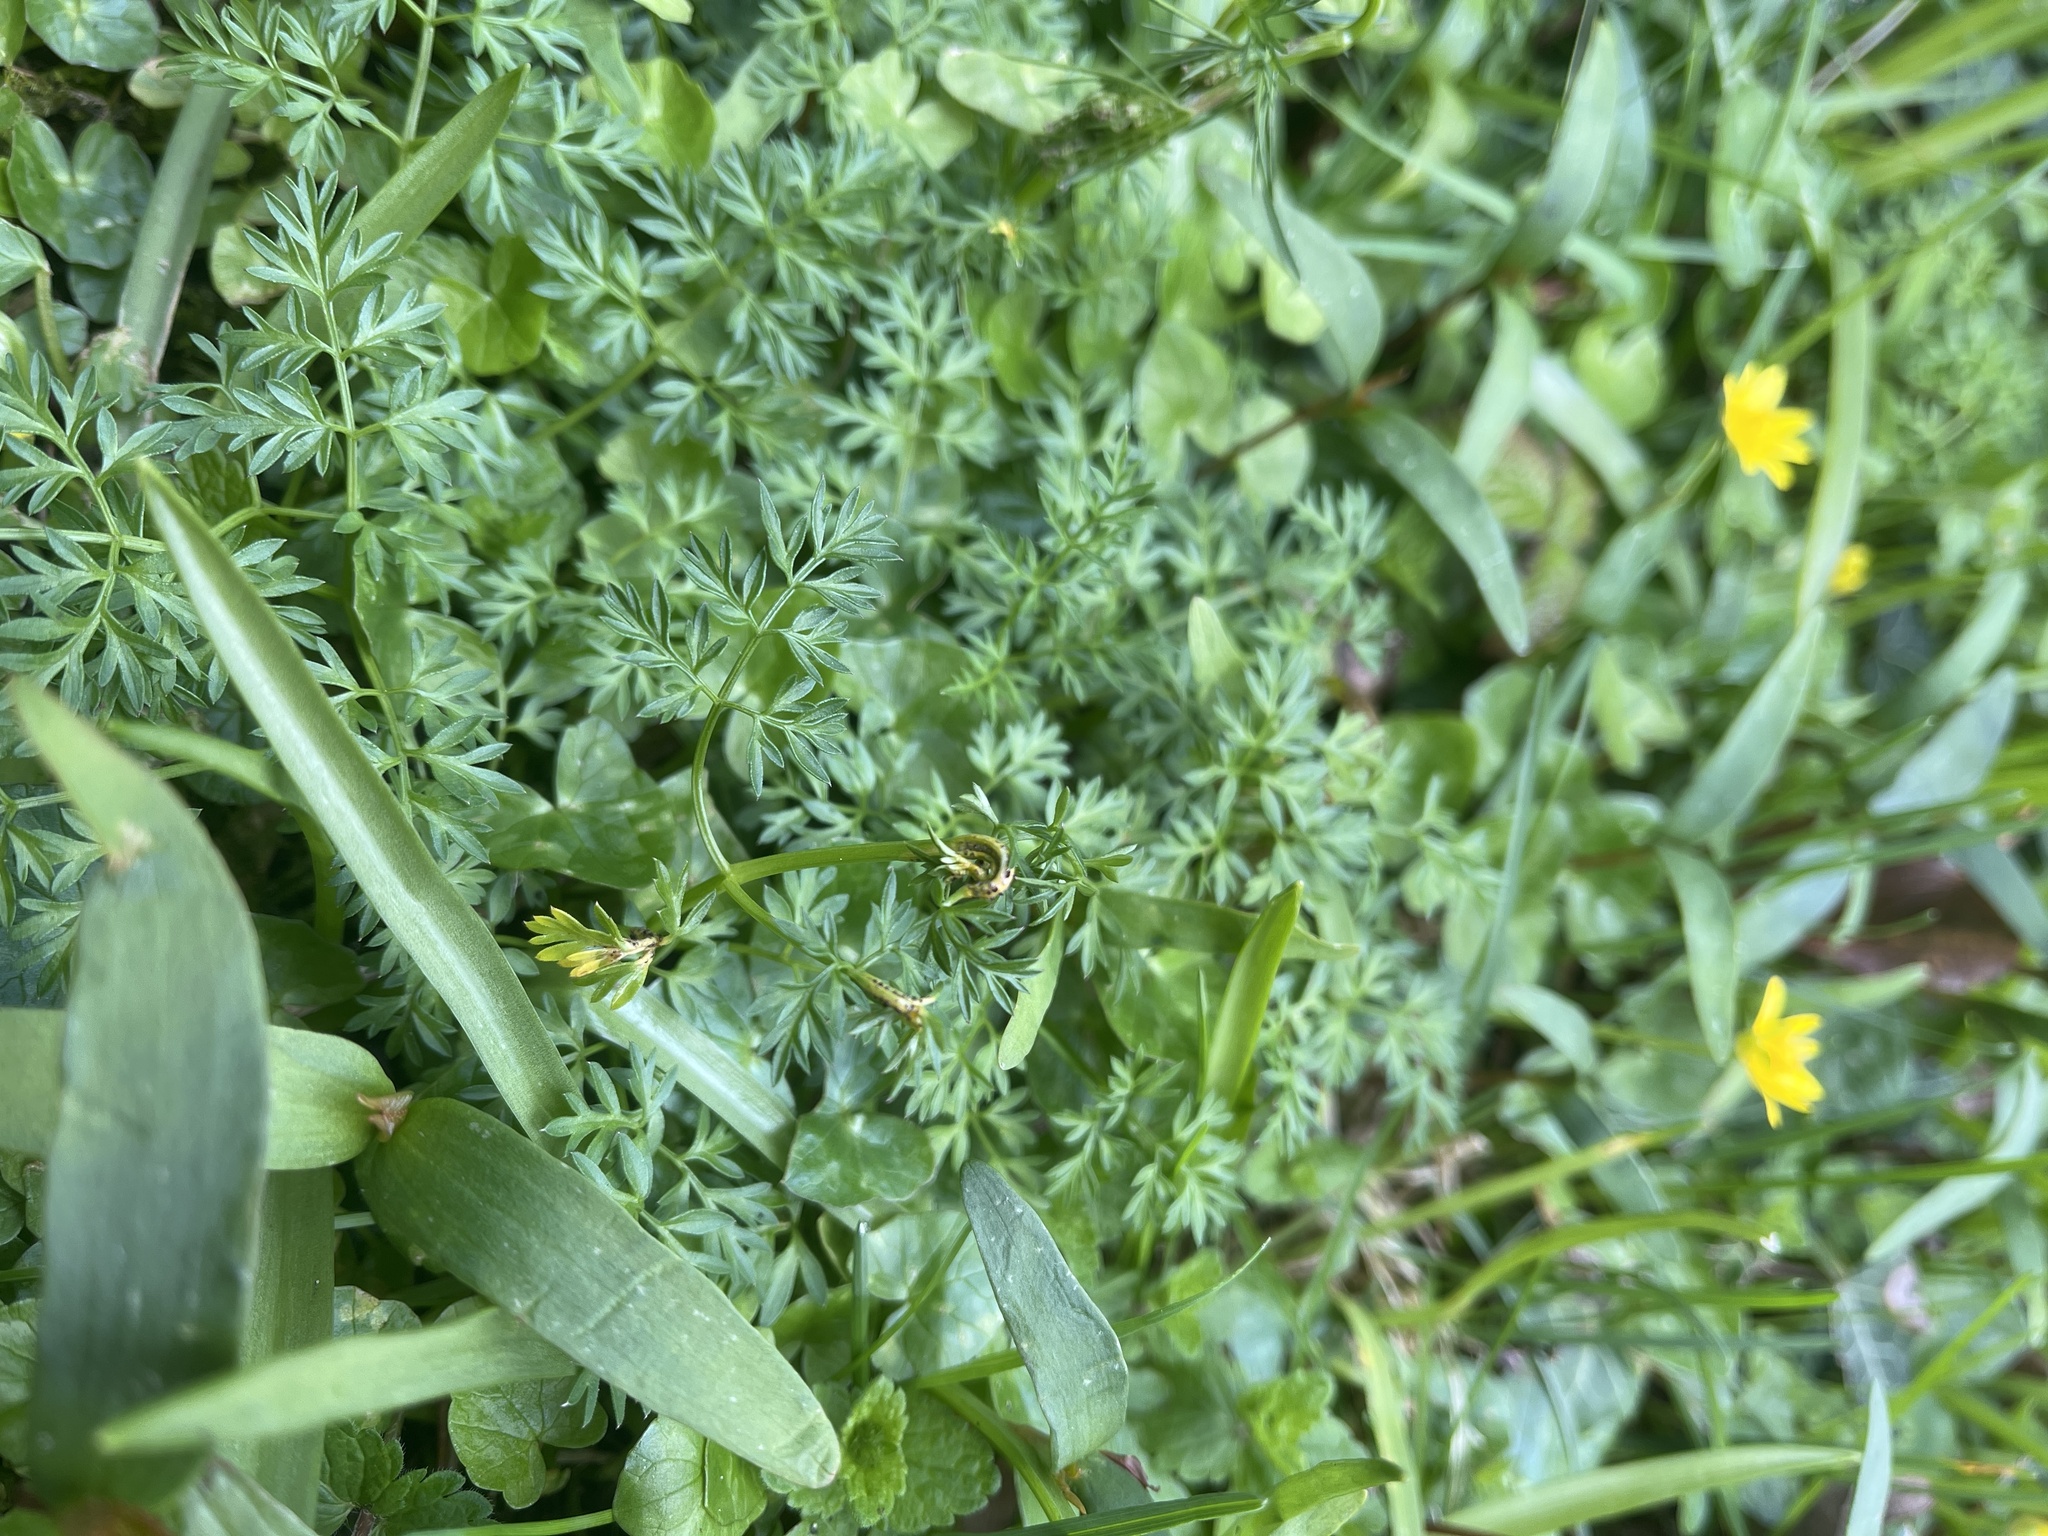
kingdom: Fungi
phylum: Basidiomycota
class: Pucciniomycetes
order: Pucciniales
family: Pucciniaceae
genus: Puccinia
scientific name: Puccinia tumida
